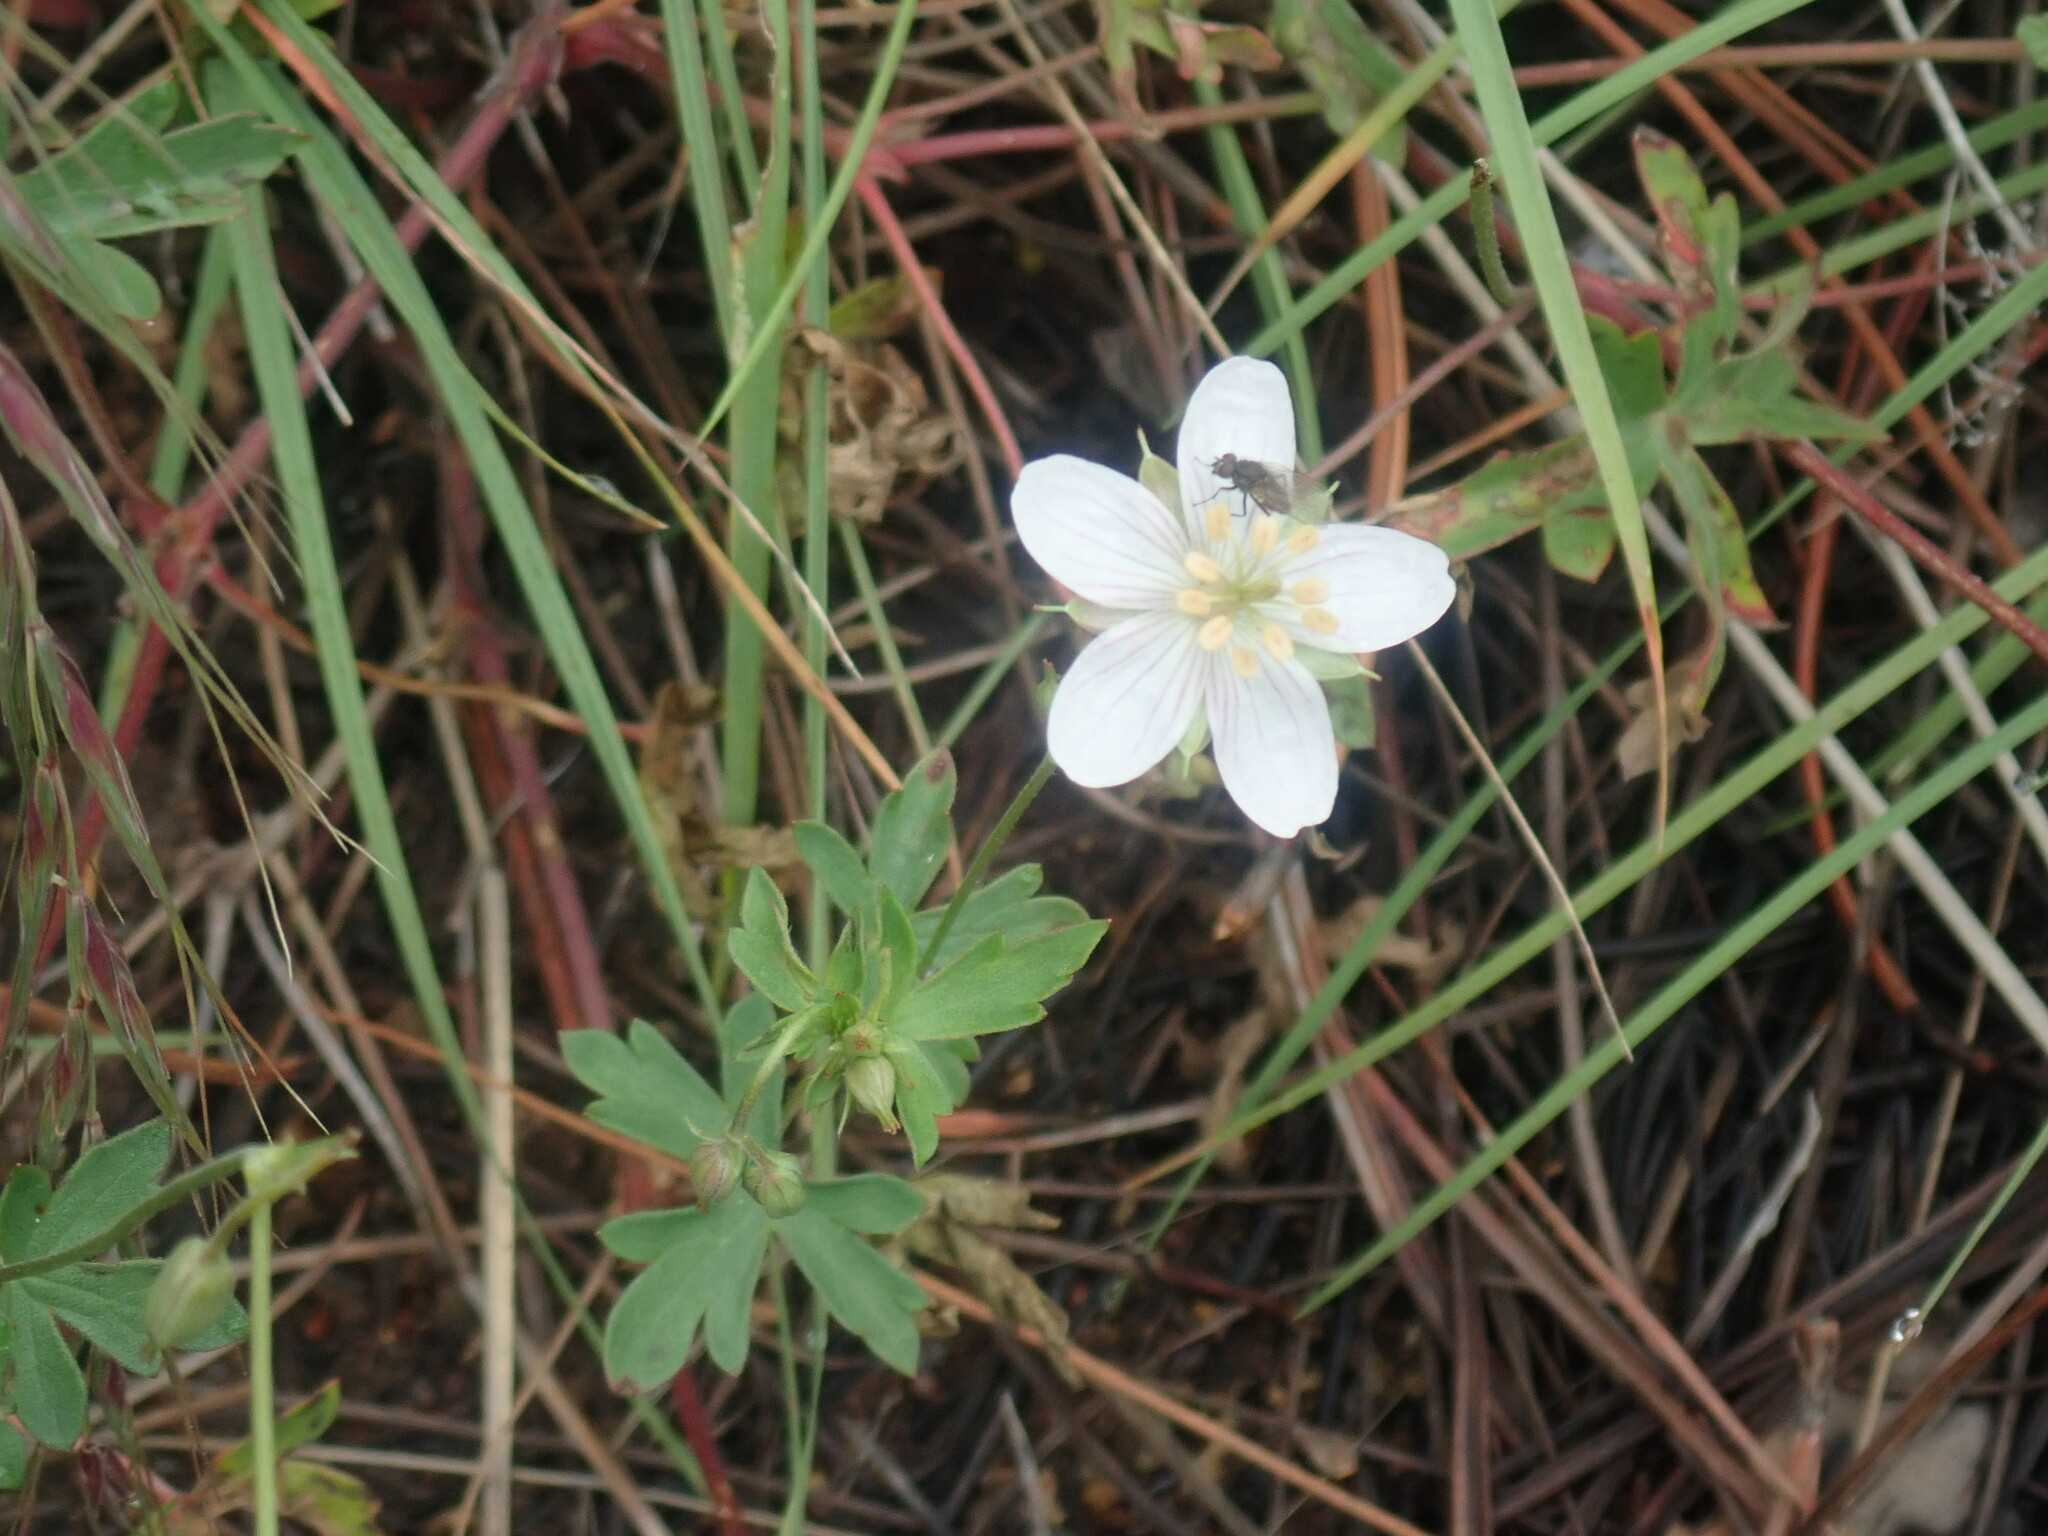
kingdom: Plantae
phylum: Tracheophyta
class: Magnoliopsida
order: Geraniales
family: Geraniaceae
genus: Geranium
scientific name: Geranium caespitosum
